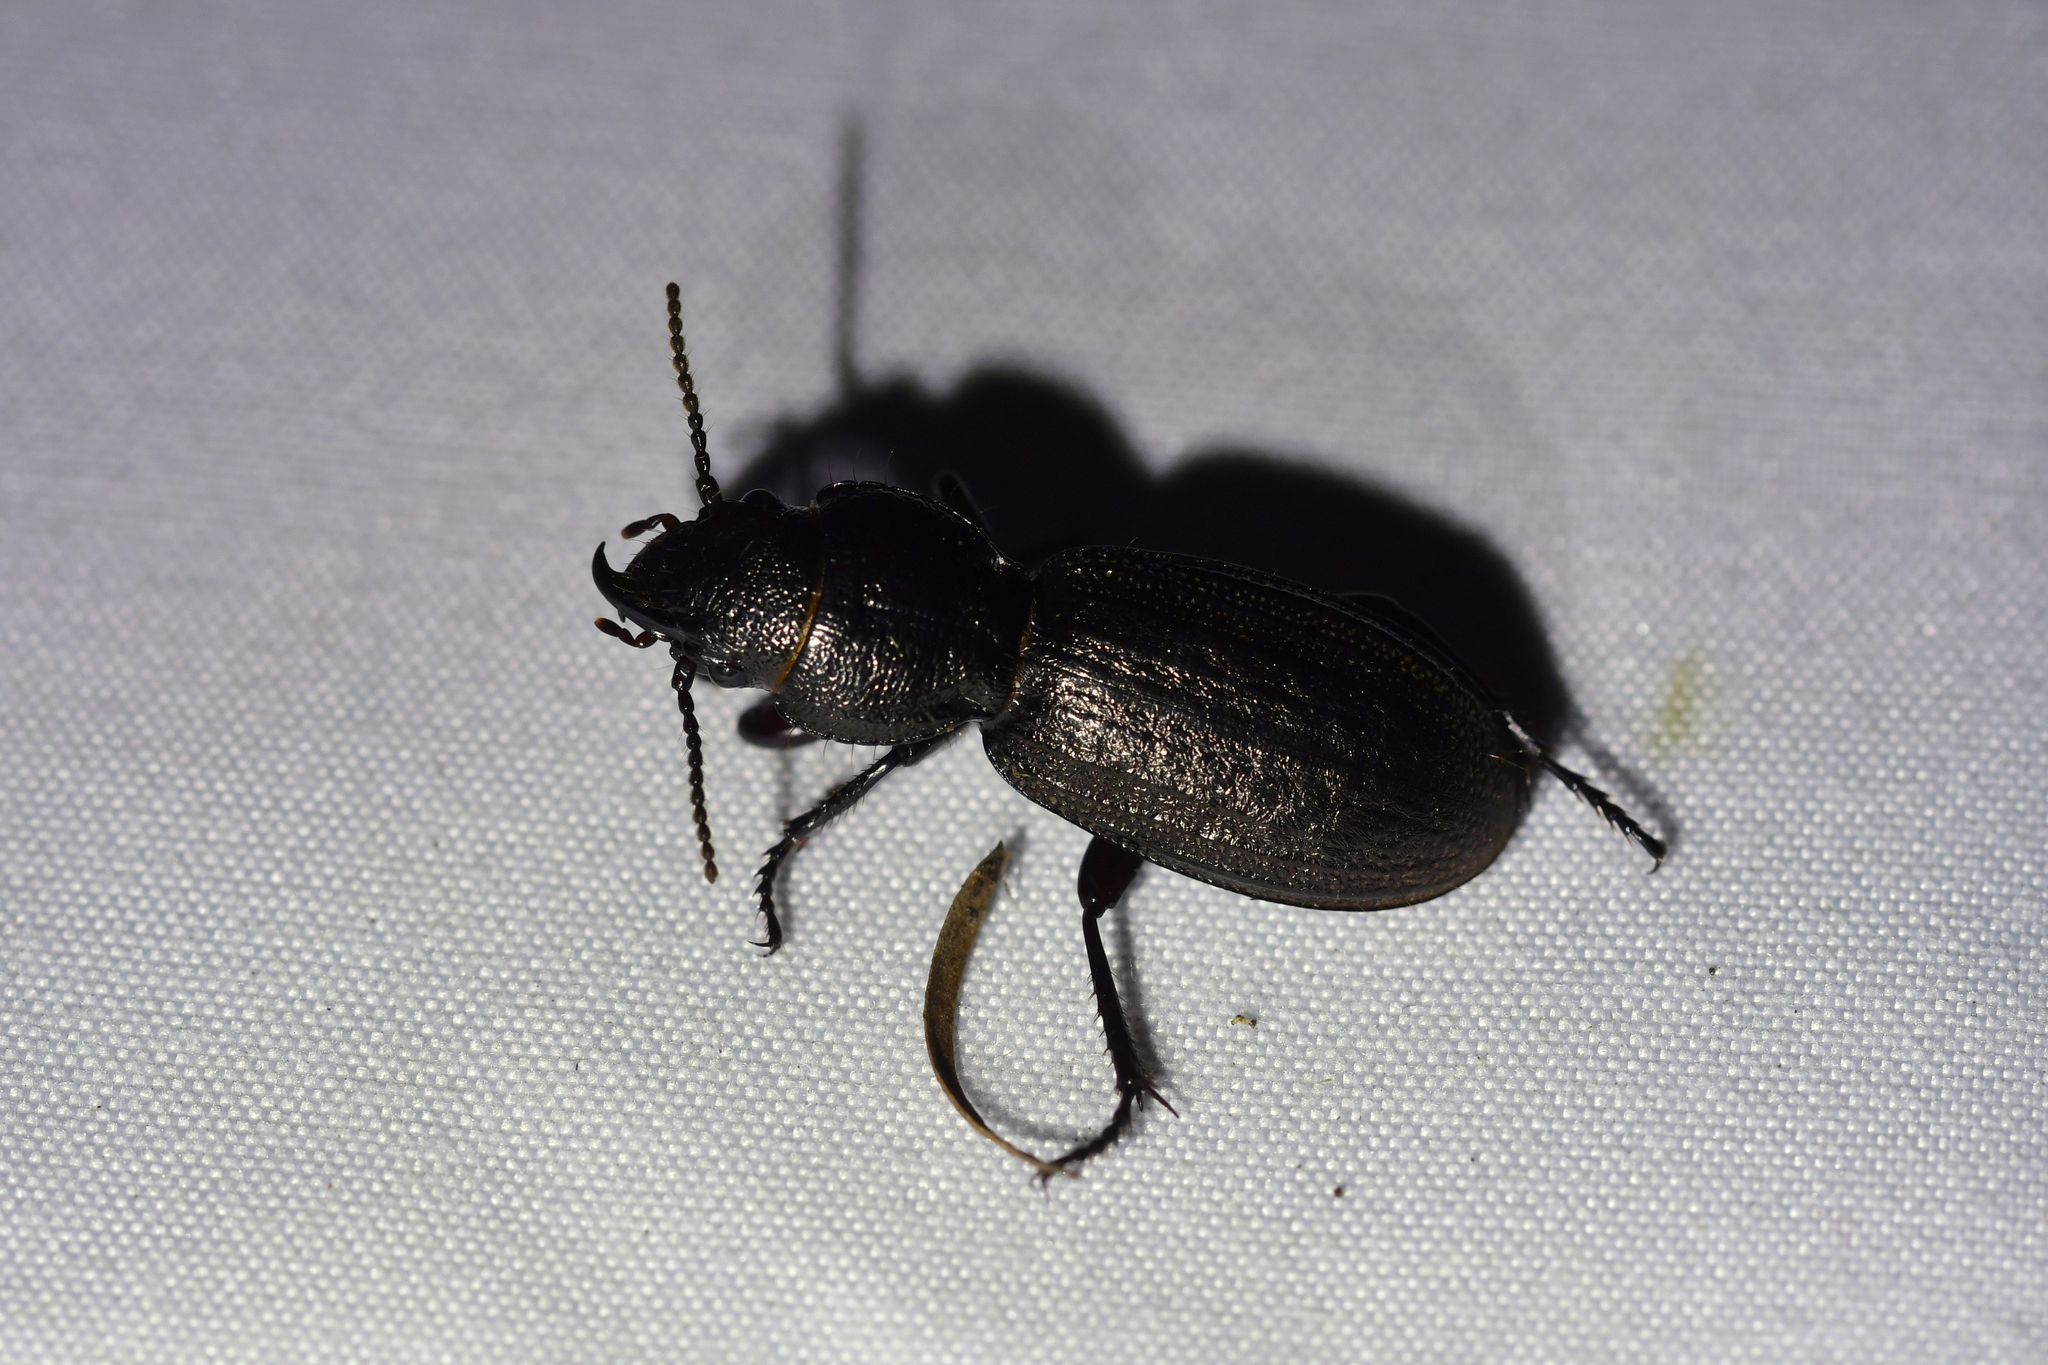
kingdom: Animalia
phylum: Arthropoda
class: Insecta
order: Coleoptera
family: Carabidae
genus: Mecodema
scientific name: Mecodema sculpturatum
